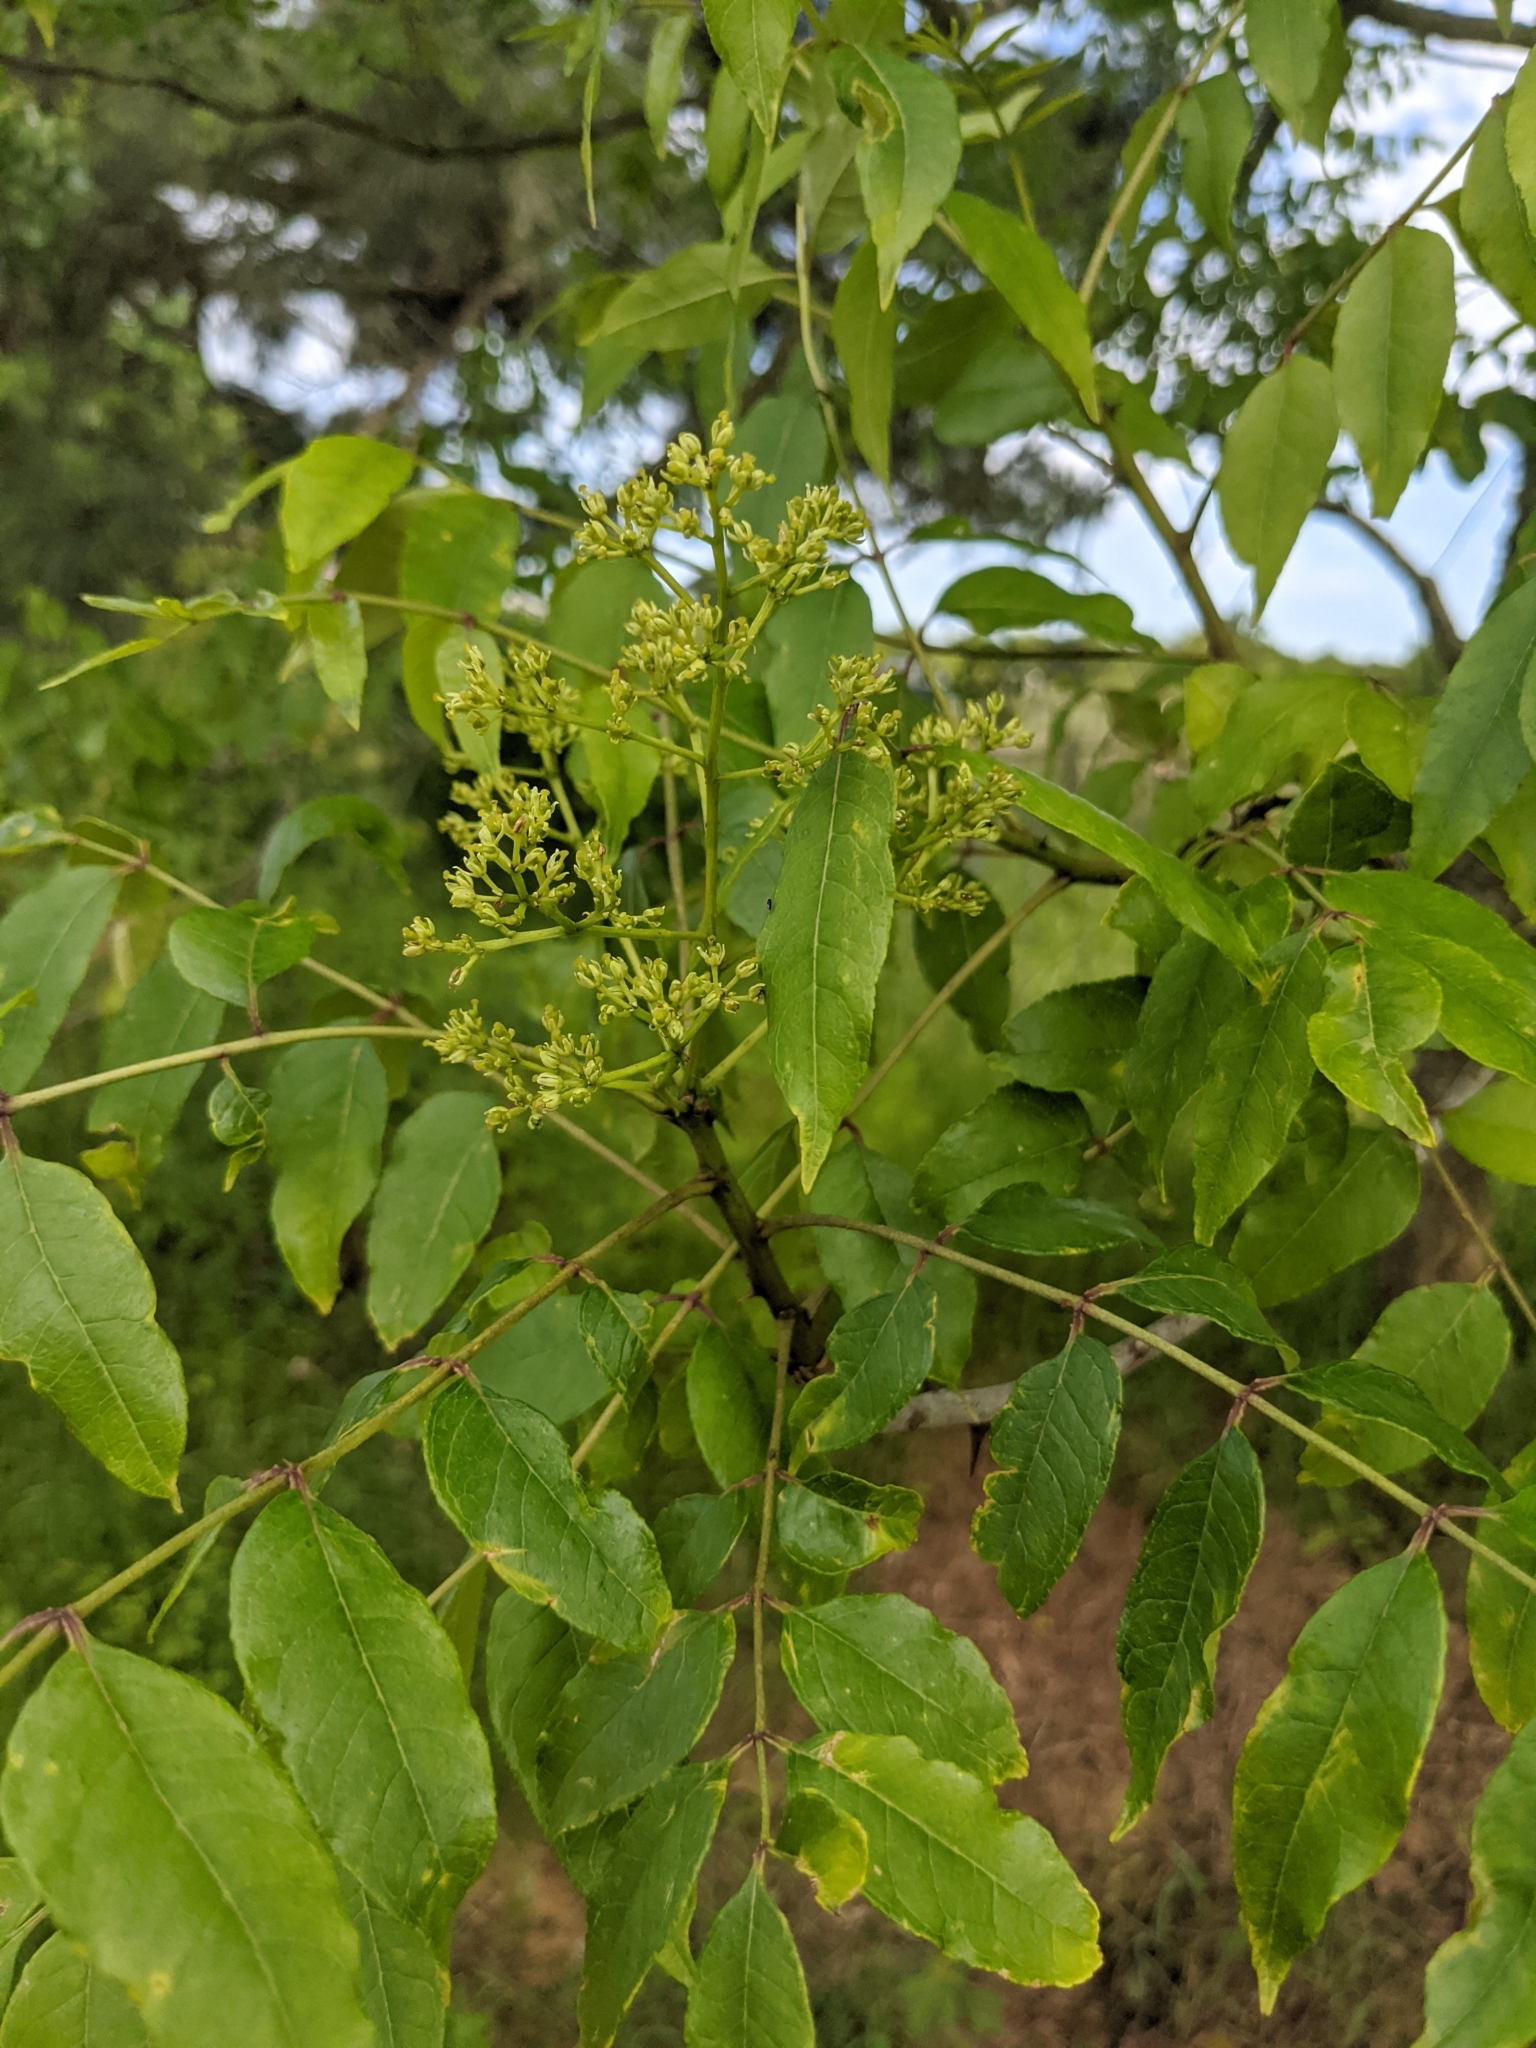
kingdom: Plantae
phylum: Tracheophyta
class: Magnoliopsida
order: Sapindales
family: Rutaceae
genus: Zanthoxylum
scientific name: Zanthoxylum clava-herculis
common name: Hercules'-club
